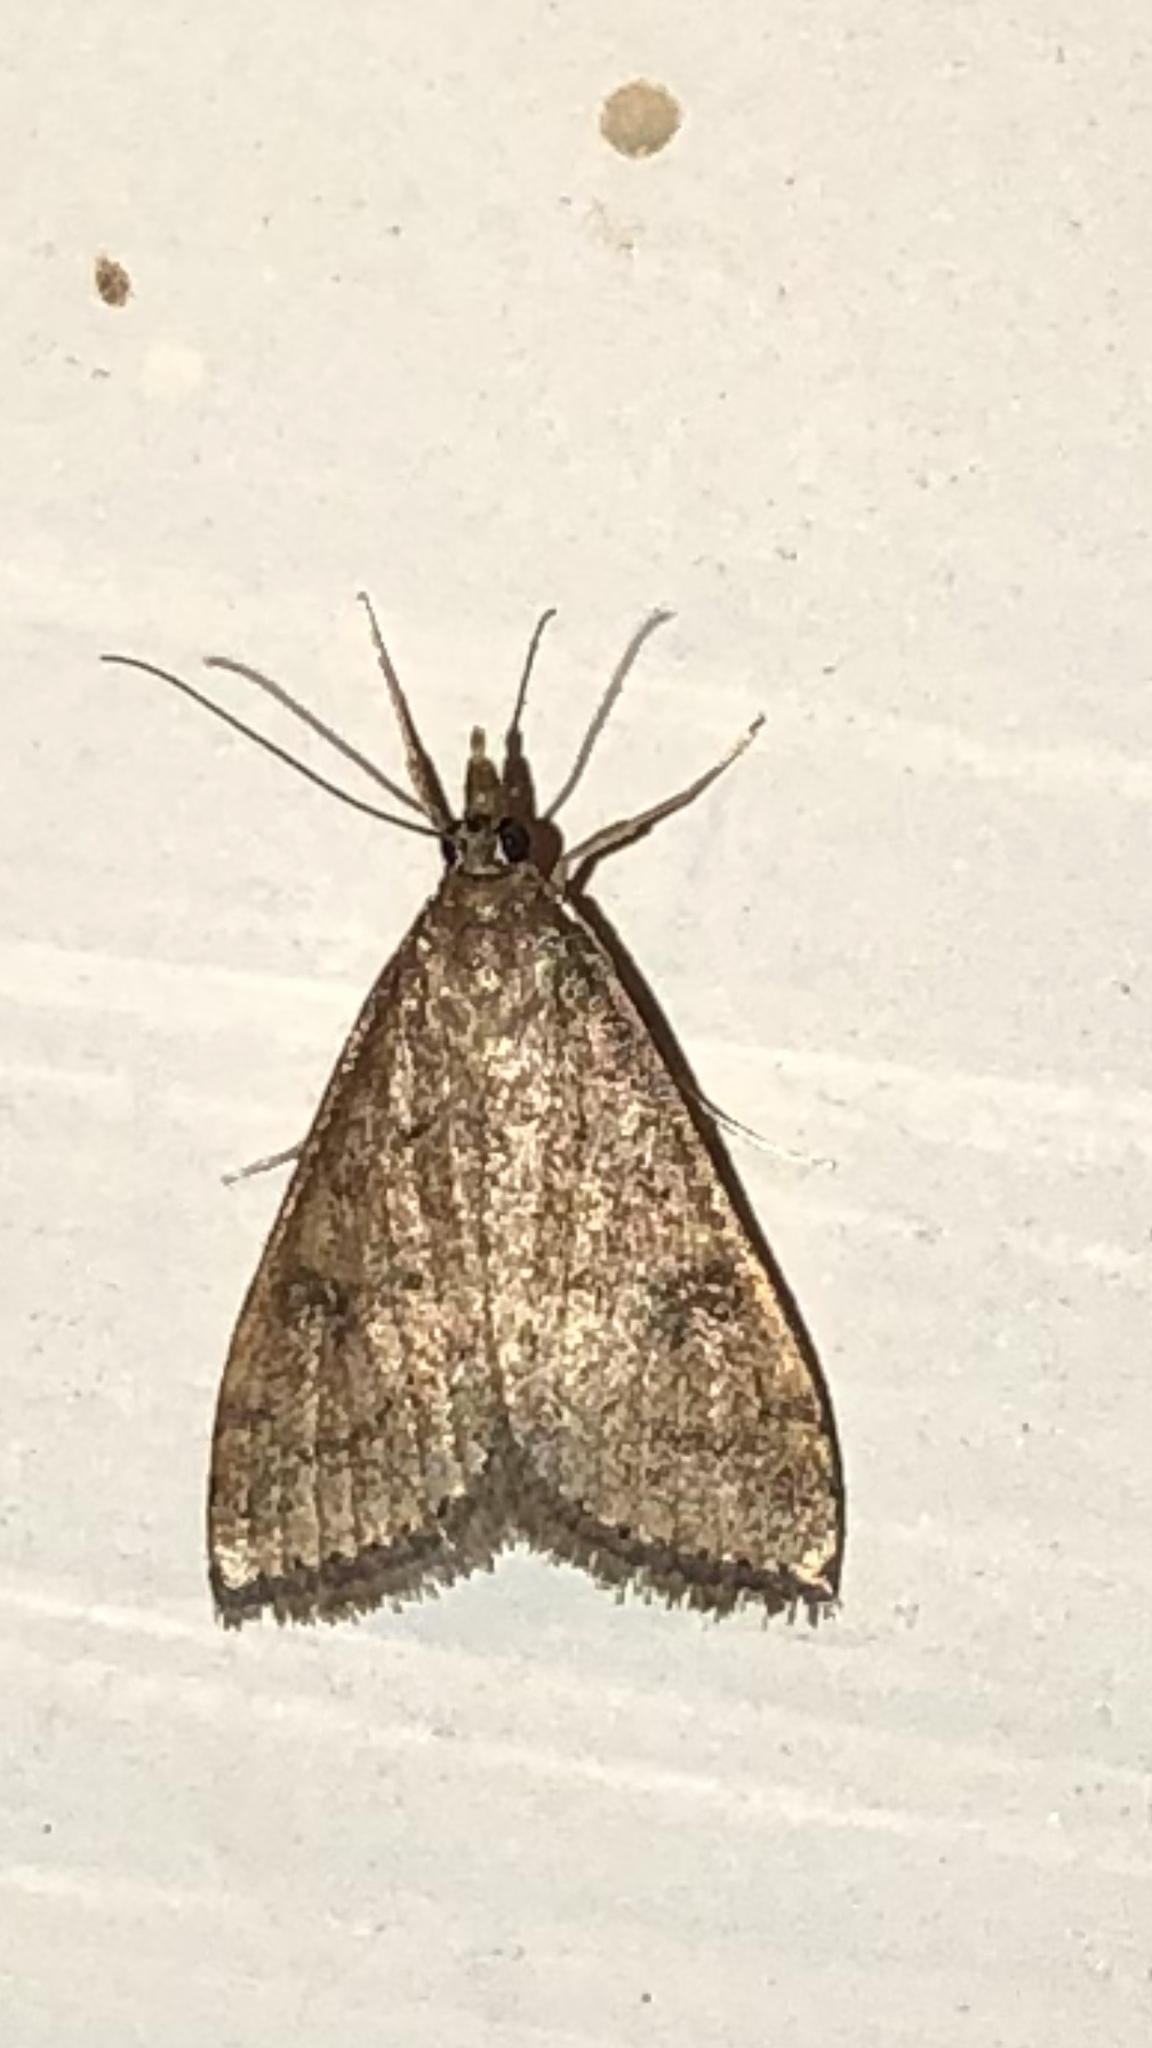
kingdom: Animalia
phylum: Arthropoda
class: Insecta
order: Lepidoptera
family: Crambidae
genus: Udea
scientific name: Udea rubigalis
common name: Celery leaftier moth
